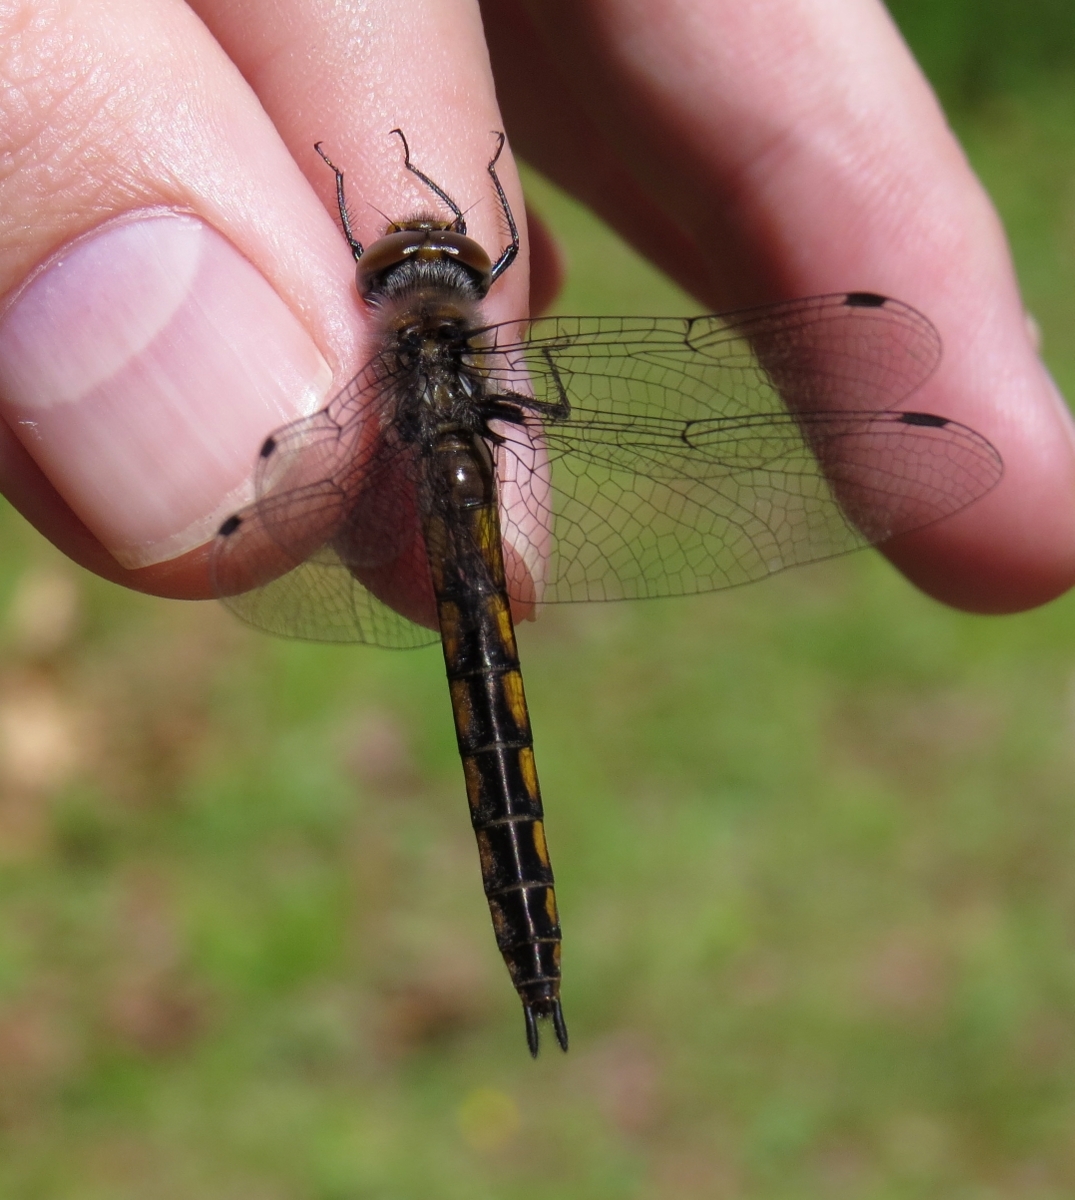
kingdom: Animalia
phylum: Arthropoda
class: Insecta
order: Odonata
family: Corduliidae
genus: Epitheca
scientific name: Epitheca spinigera
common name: Spiny baskettail
